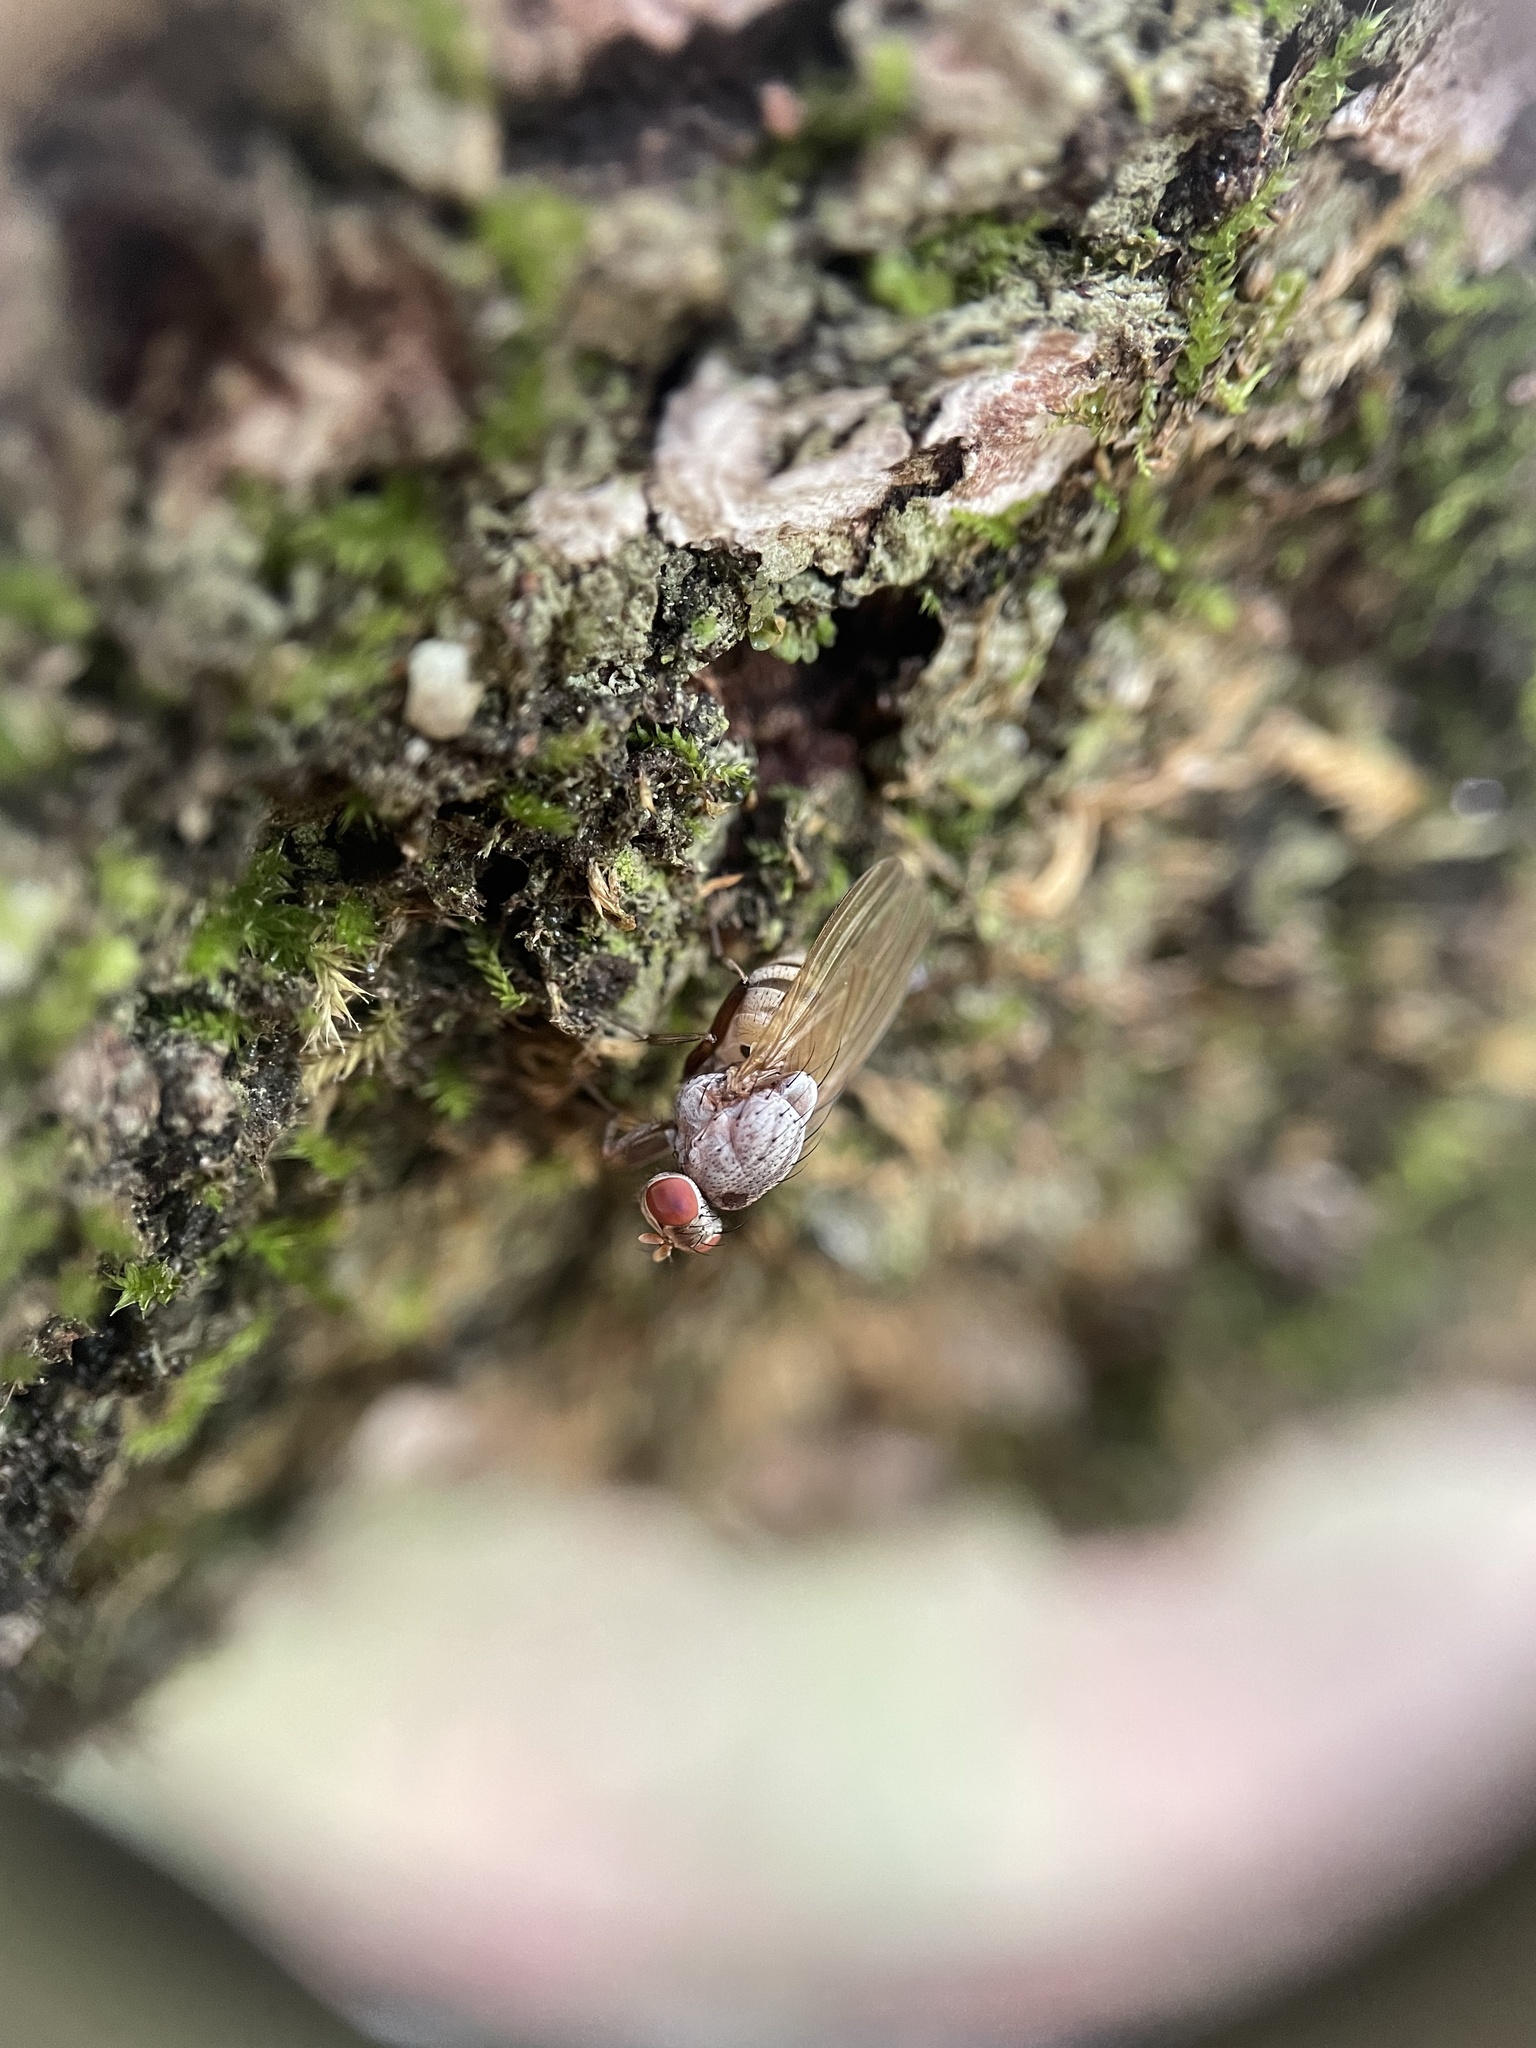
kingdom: Animalia
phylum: Arthropoda
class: Insecta
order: Diptera
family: Lauxaniidae
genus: Minettia
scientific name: Minettia magna
